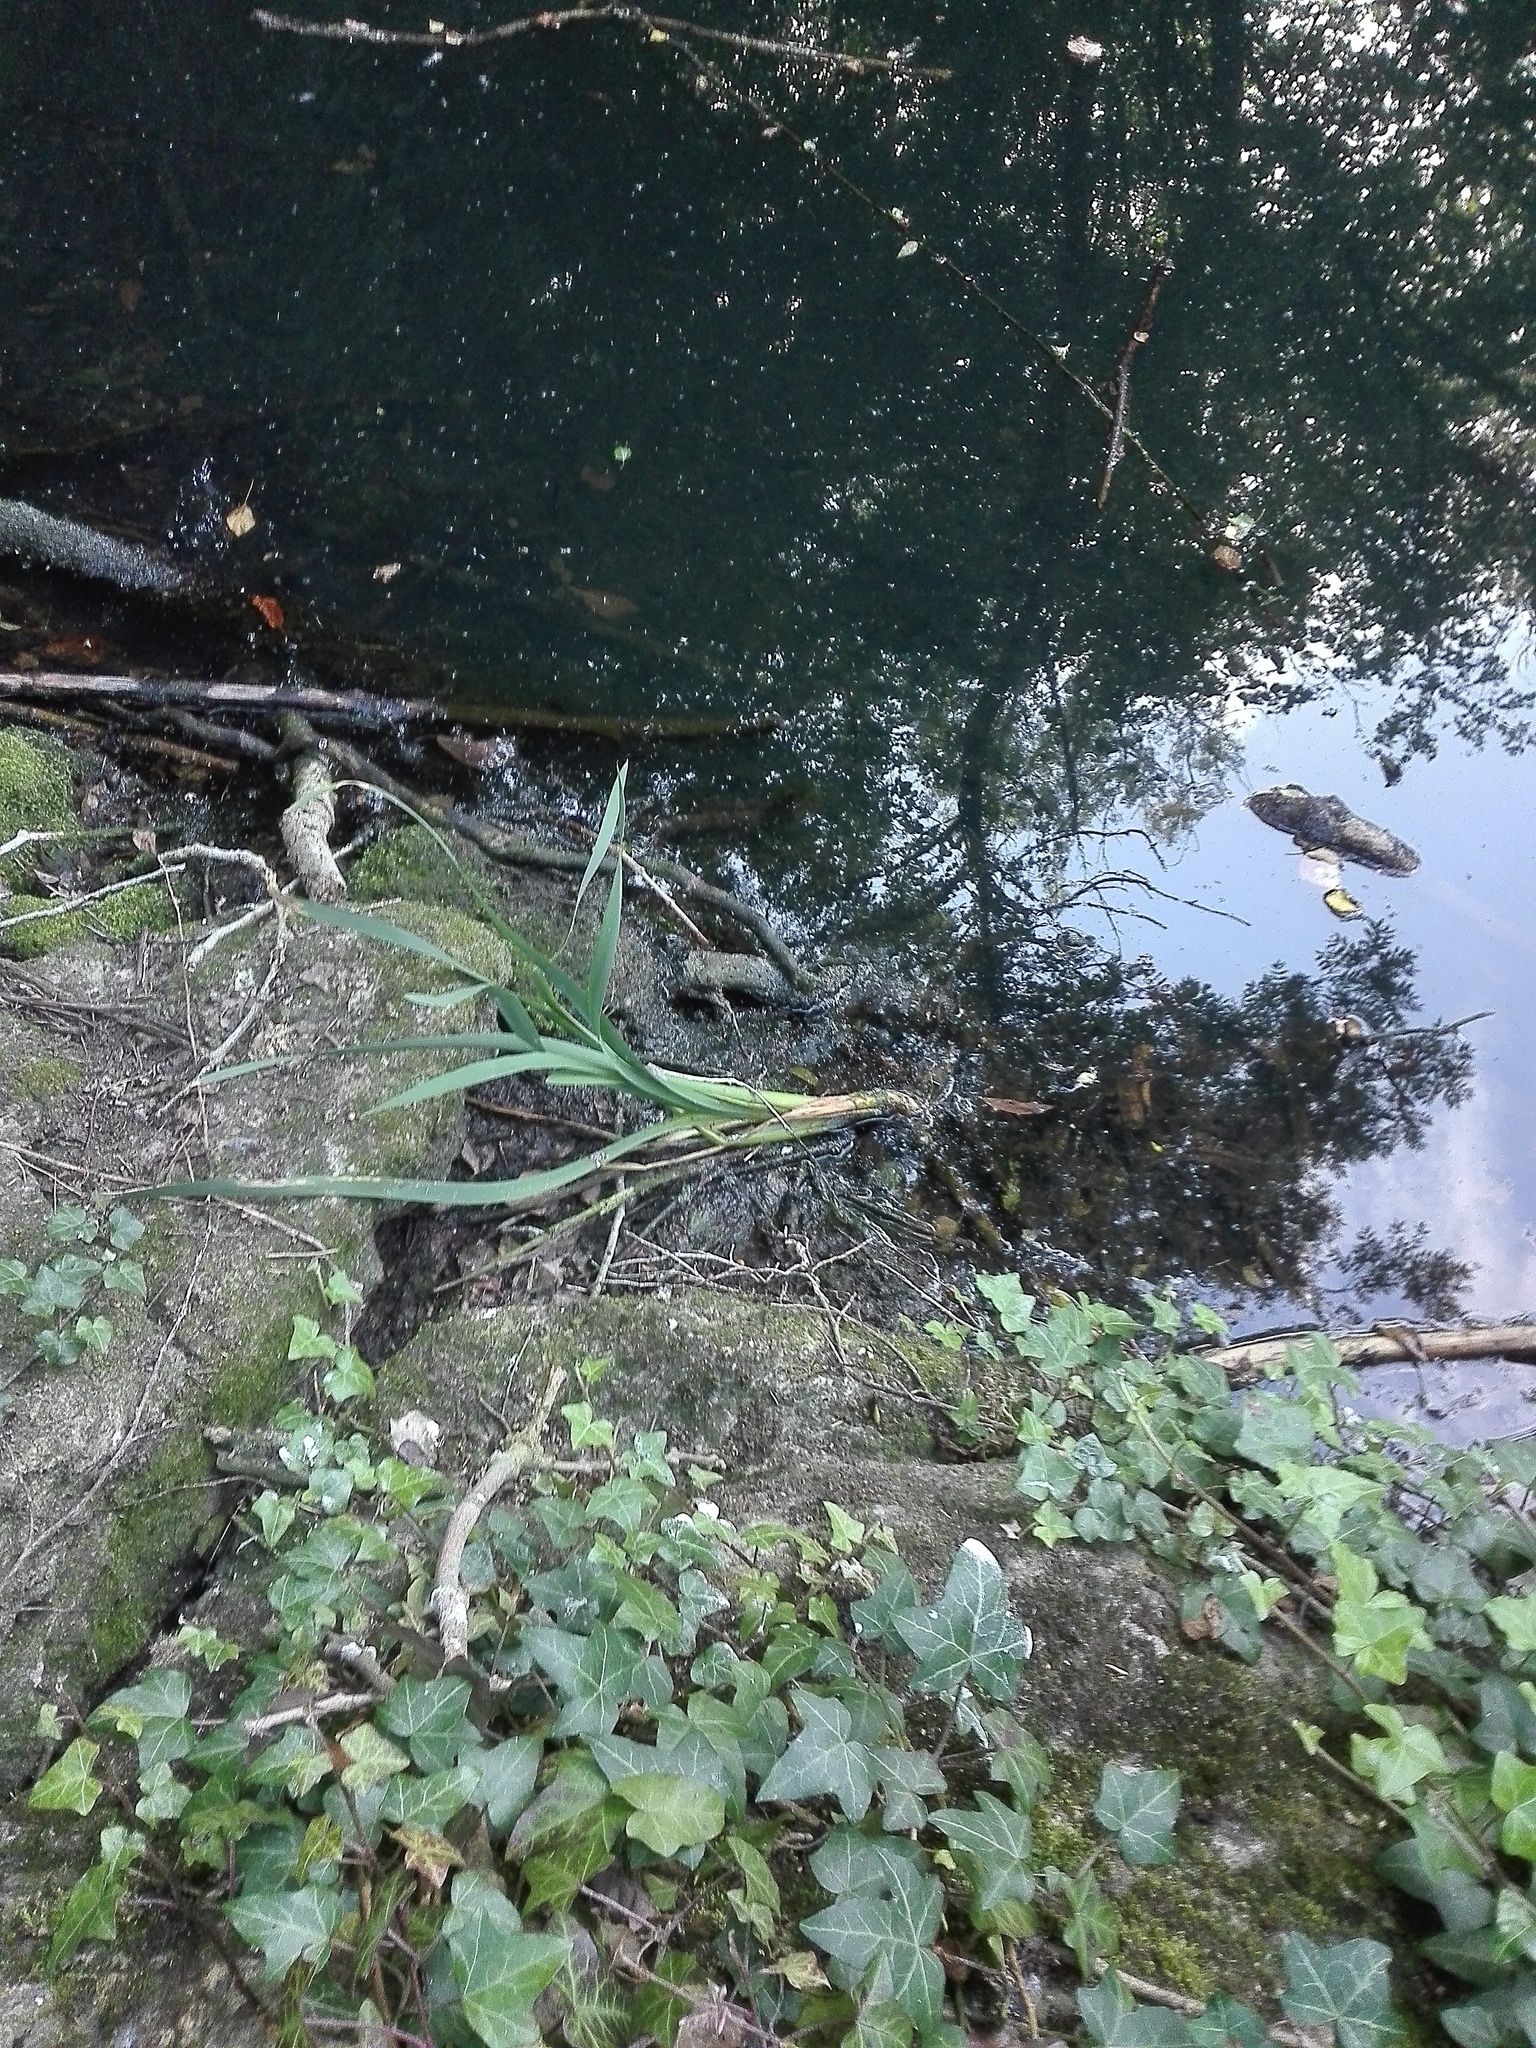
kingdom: Plantae
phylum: Tracheophyta
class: Liliopsida
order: Poales
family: Typhaceae
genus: Typha
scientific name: Typha latifolia
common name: Broadleaf cattail
